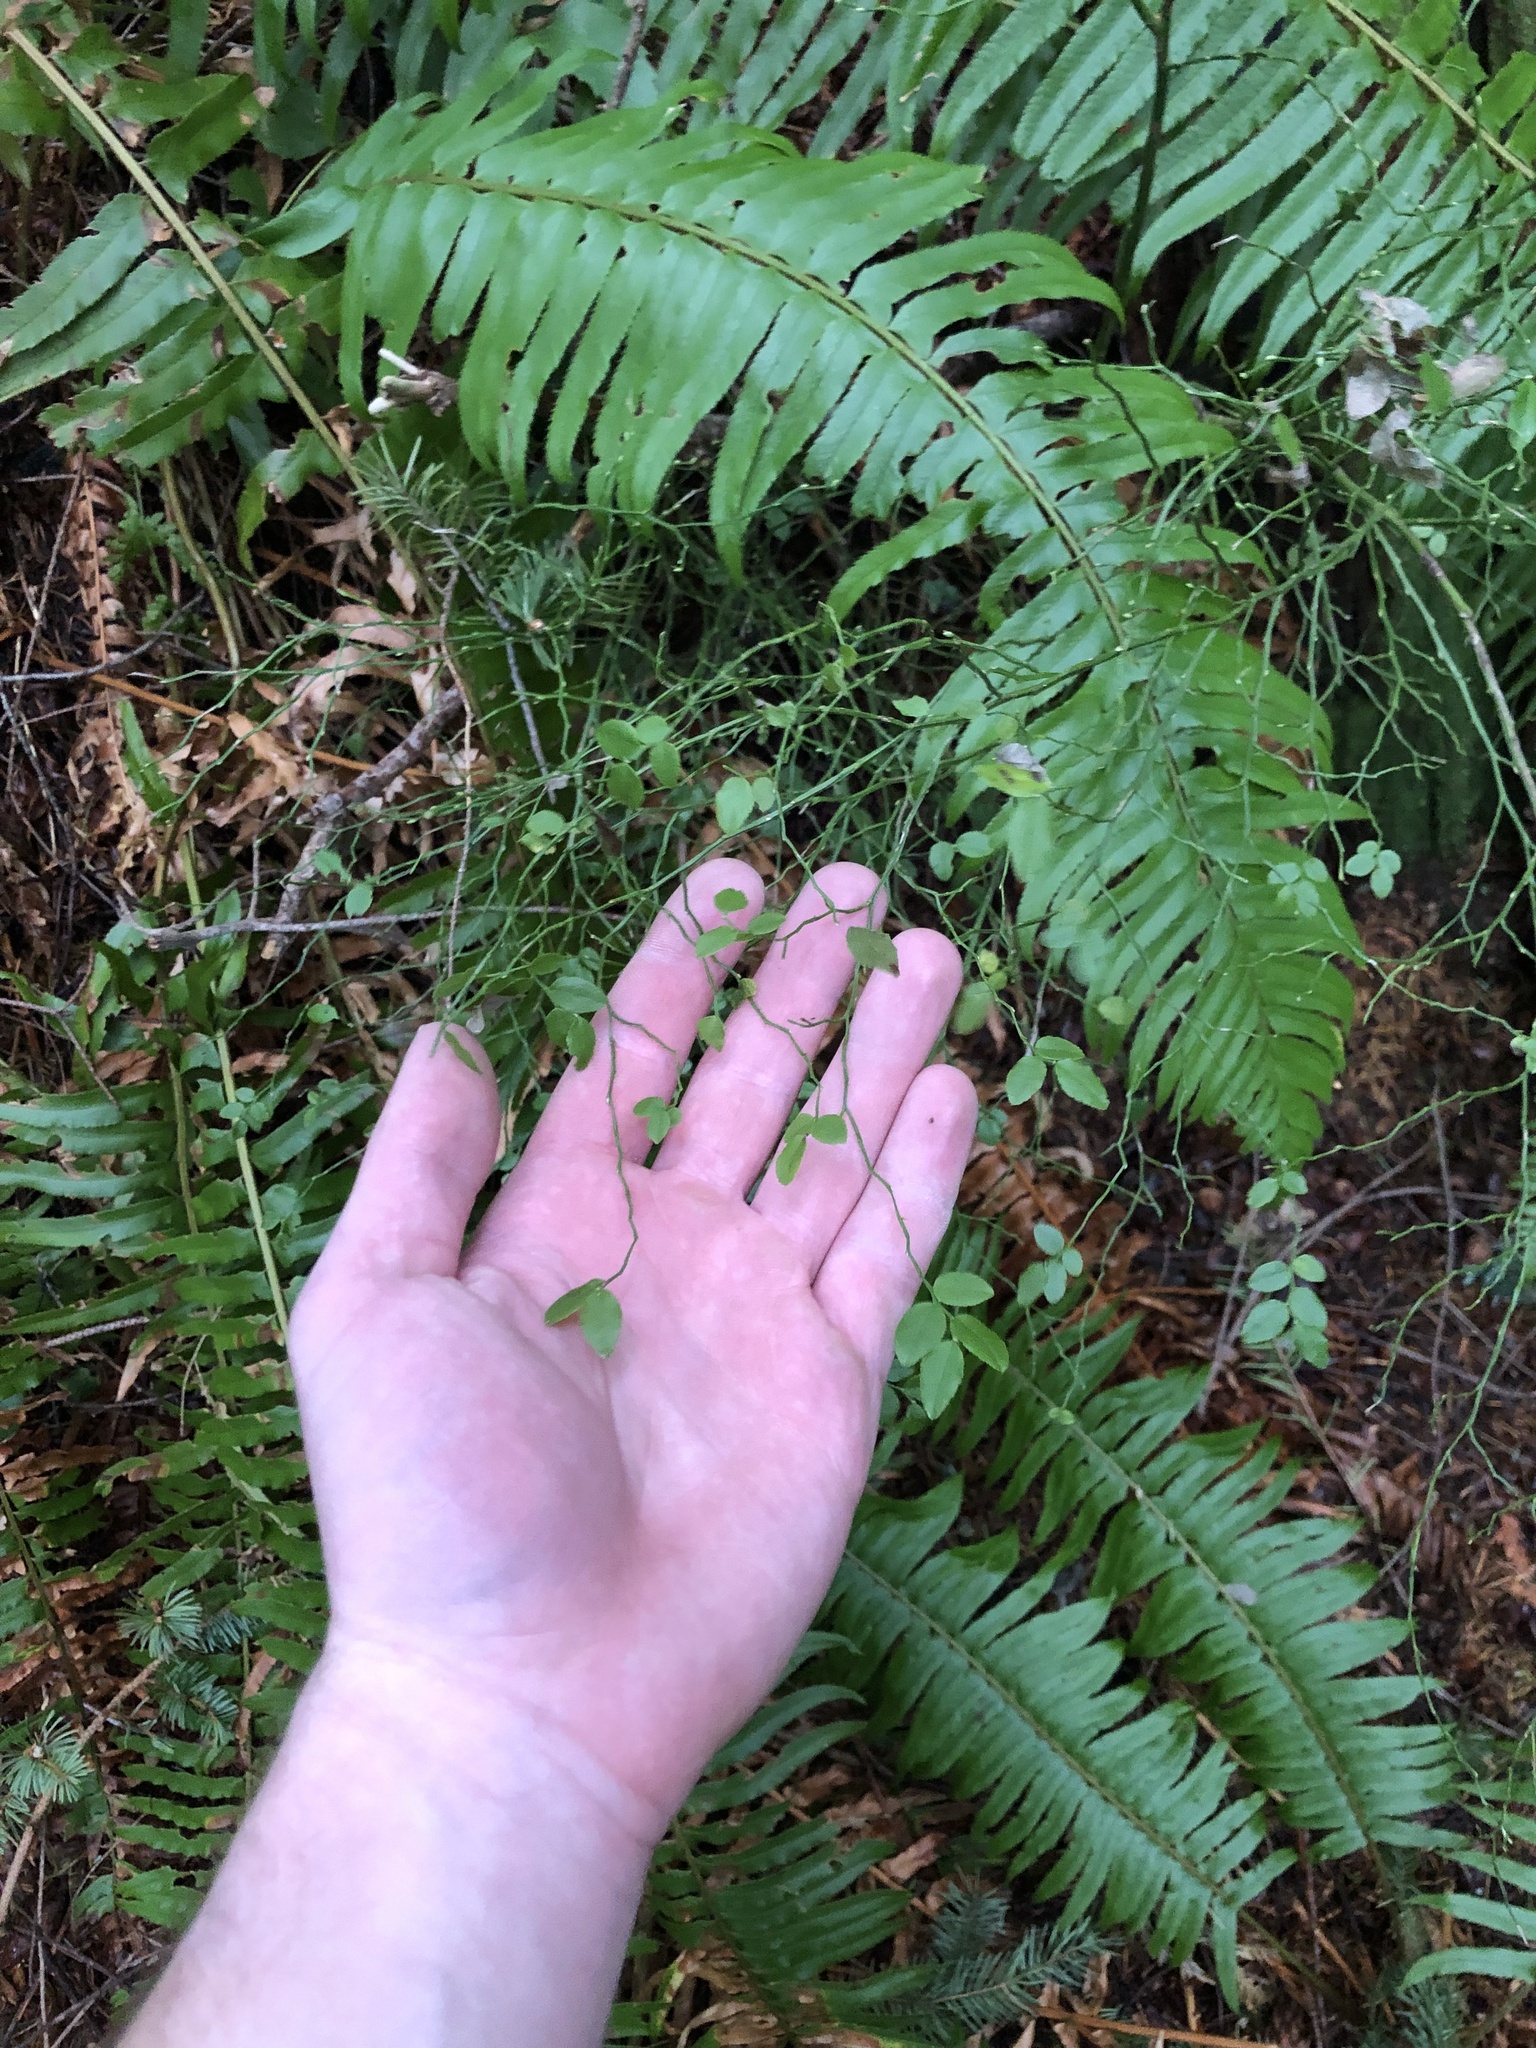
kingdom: Plantae
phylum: Tracheophyta
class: Magnoliopsida
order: Ericales
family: Ericaceae
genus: Vaccinium
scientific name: Vaccinium parvifolium
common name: Red-huckleberry
